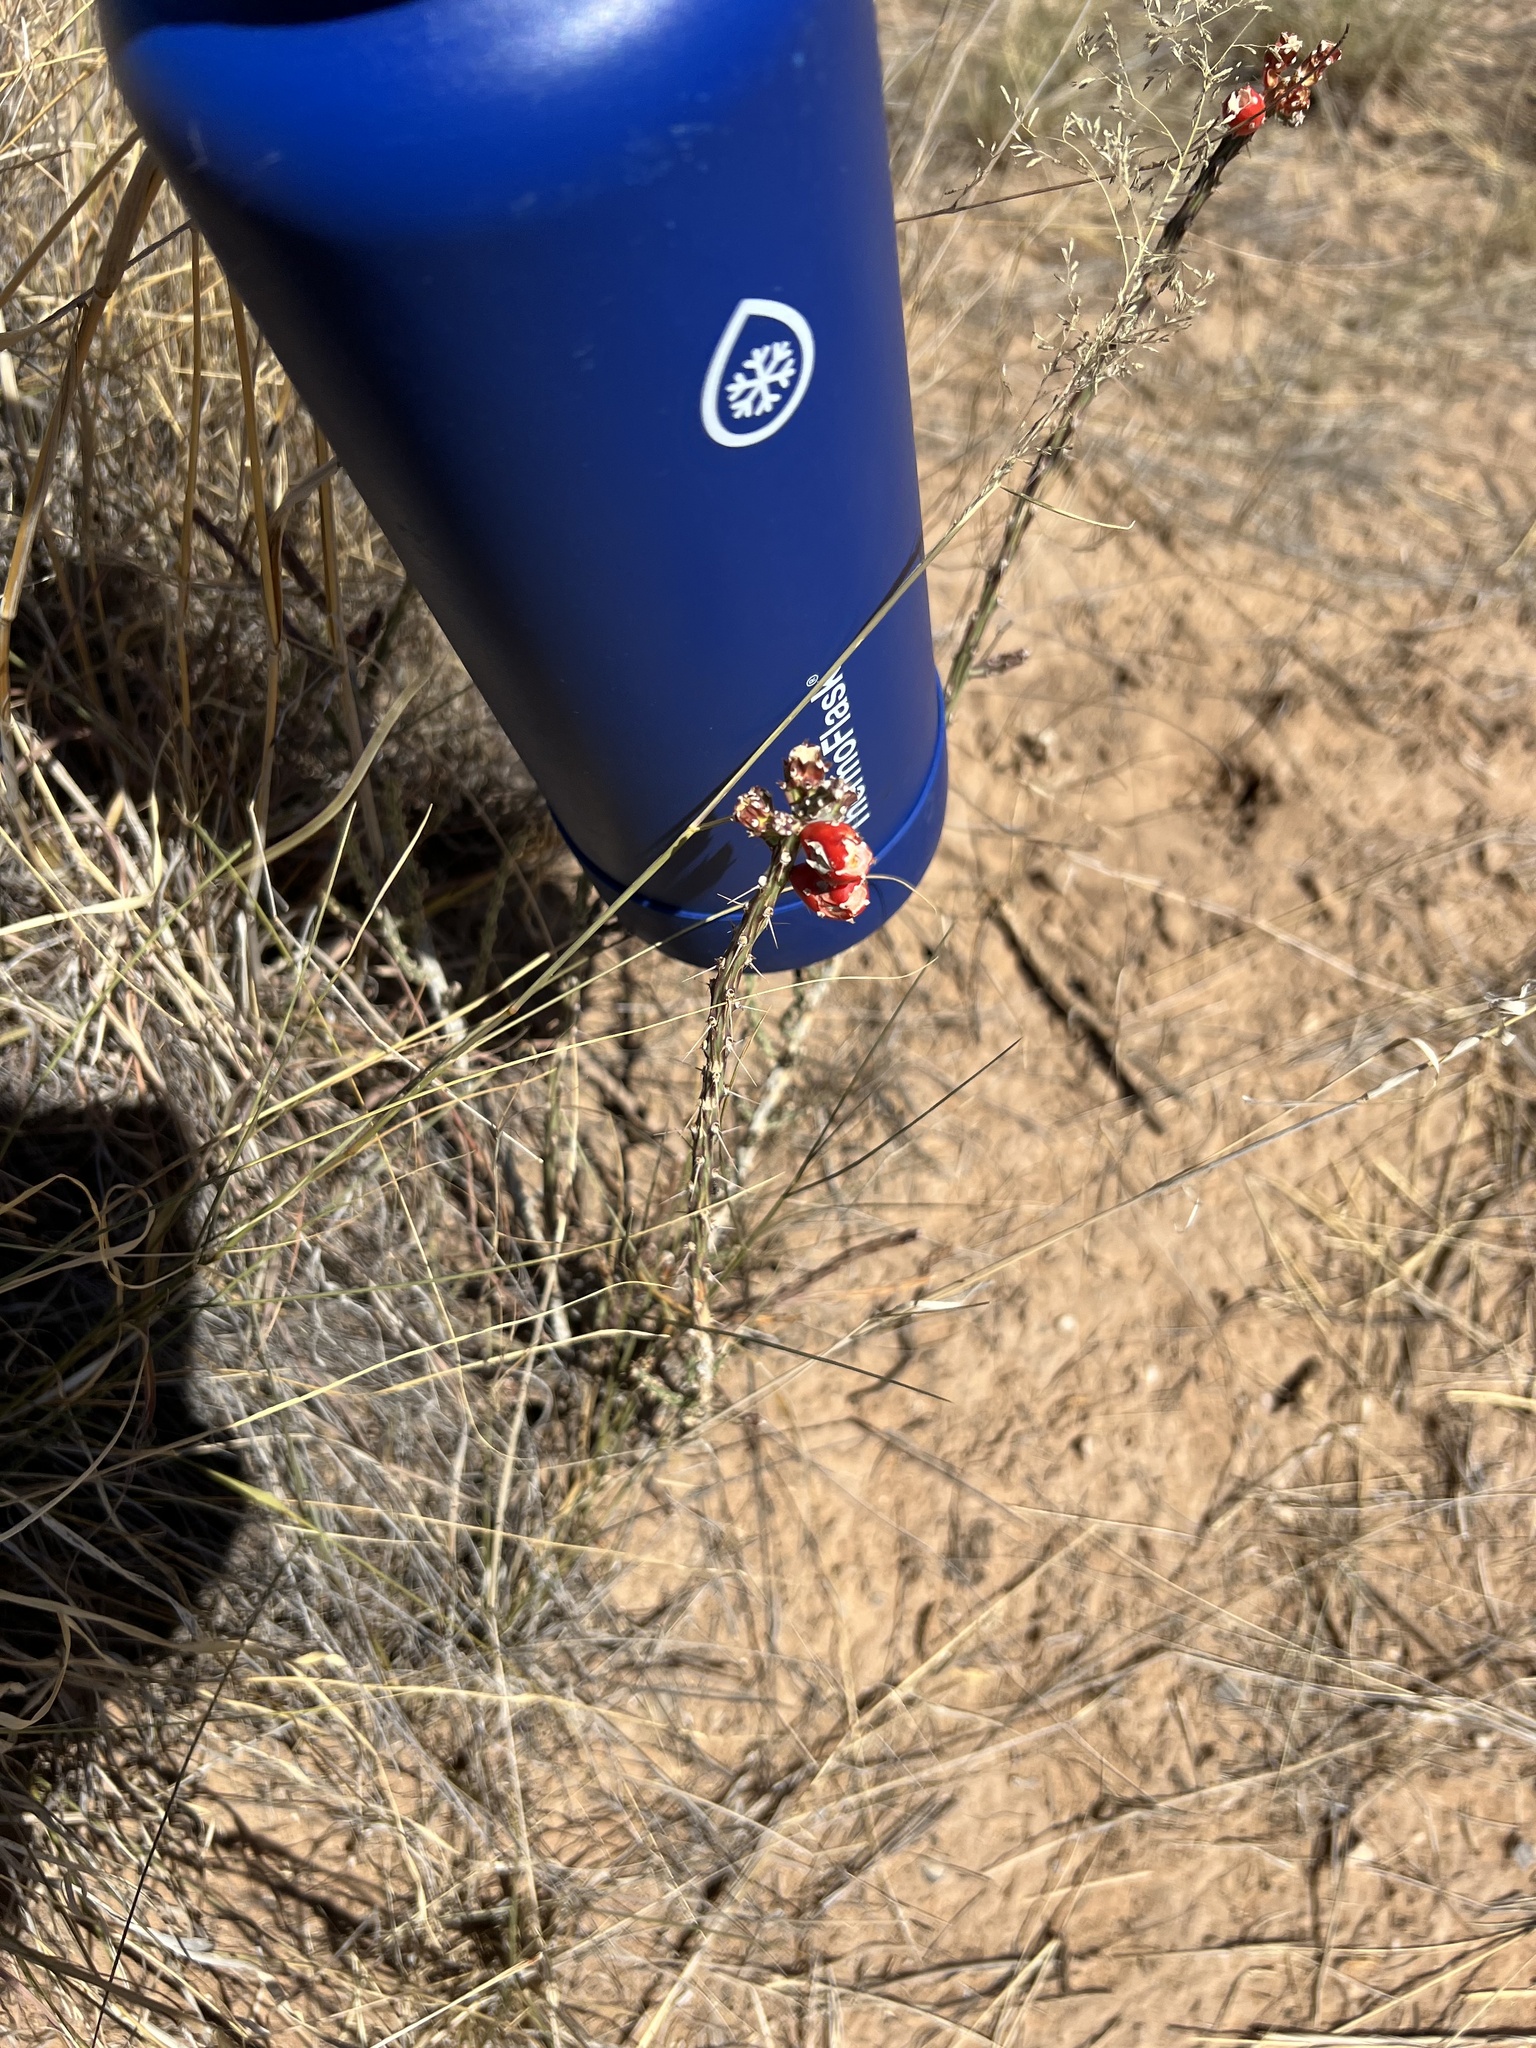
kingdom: Plantae
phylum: Tracheophyta
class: Magnoliopsida
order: Caryophyllales
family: Cactaceae
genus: Cylindropuntia
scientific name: Cylindropuntia leptocaulis
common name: Christmas cactus
